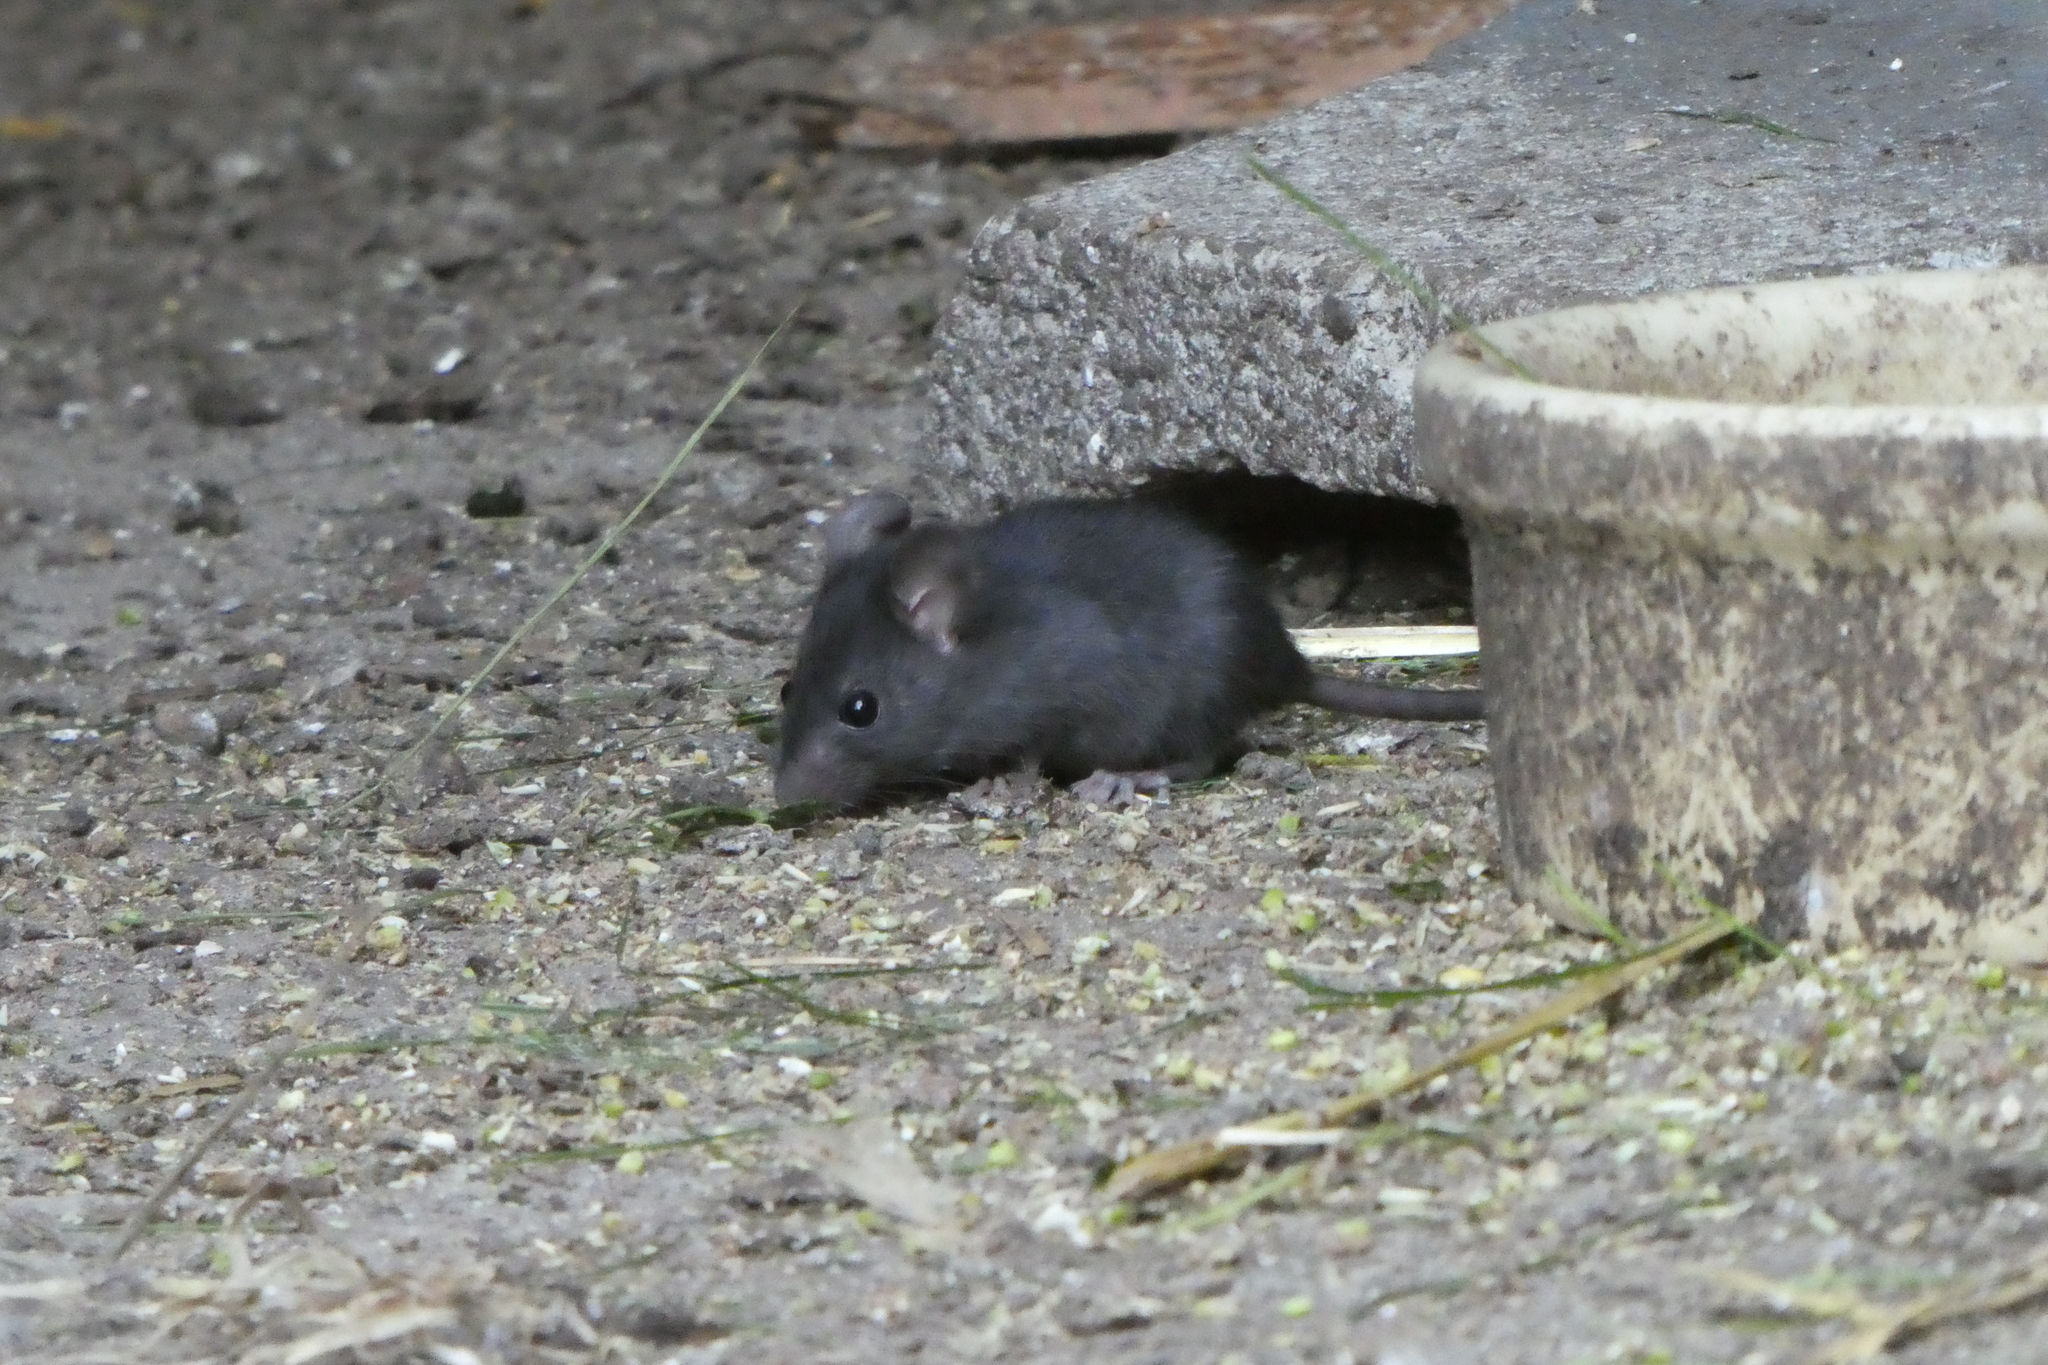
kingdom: Animalia
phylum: Chordata
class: Mammalia
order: Rodentia
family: Muridae
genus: Rattus
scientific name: Rattus rattus
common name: Black rat
